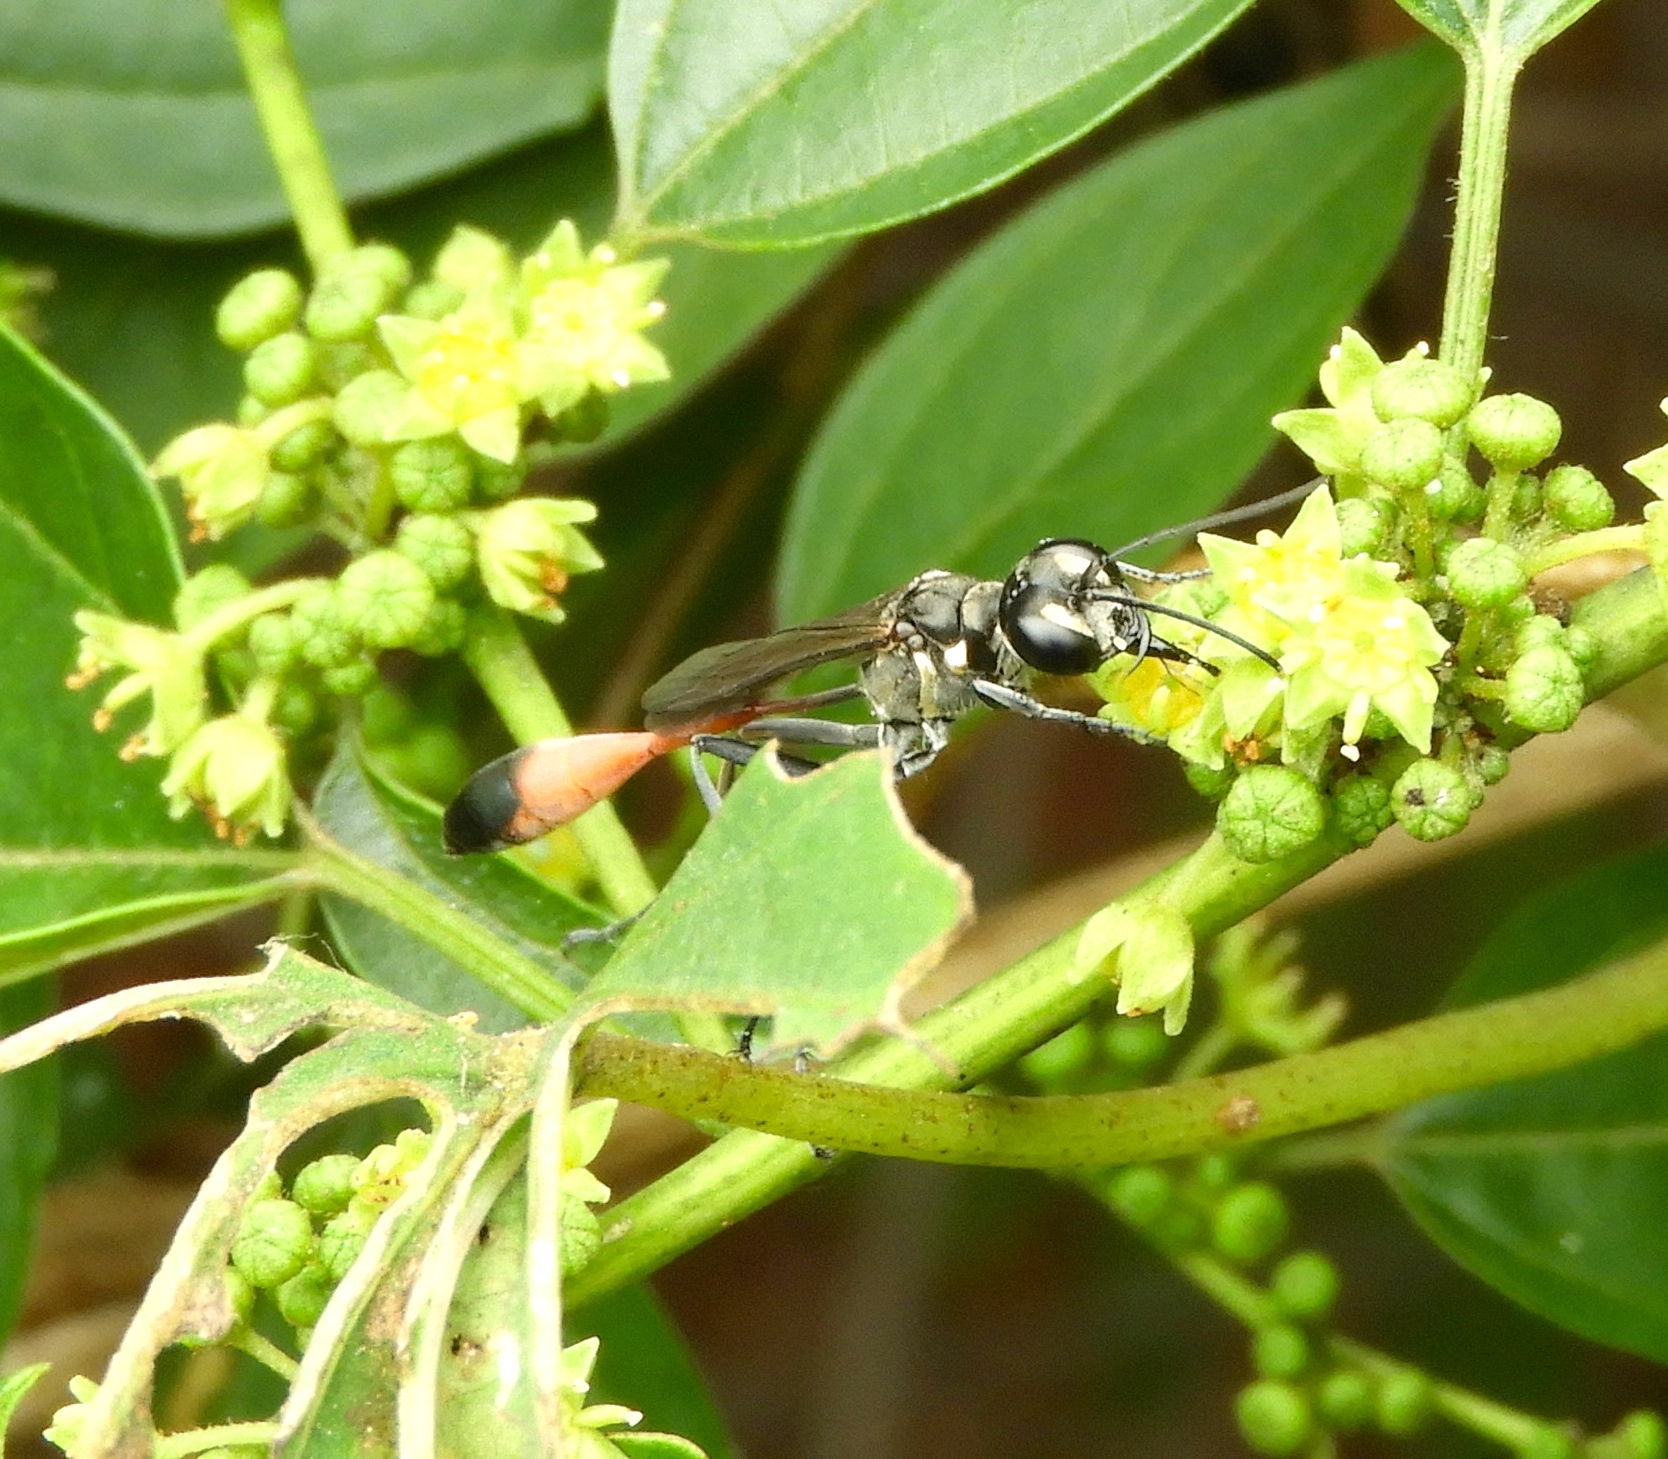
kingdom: Animalia
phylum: Arthropoda
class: Insecta
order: Hymenoptera
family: Sphecidae
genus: Ammophila
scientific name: Ammophila
